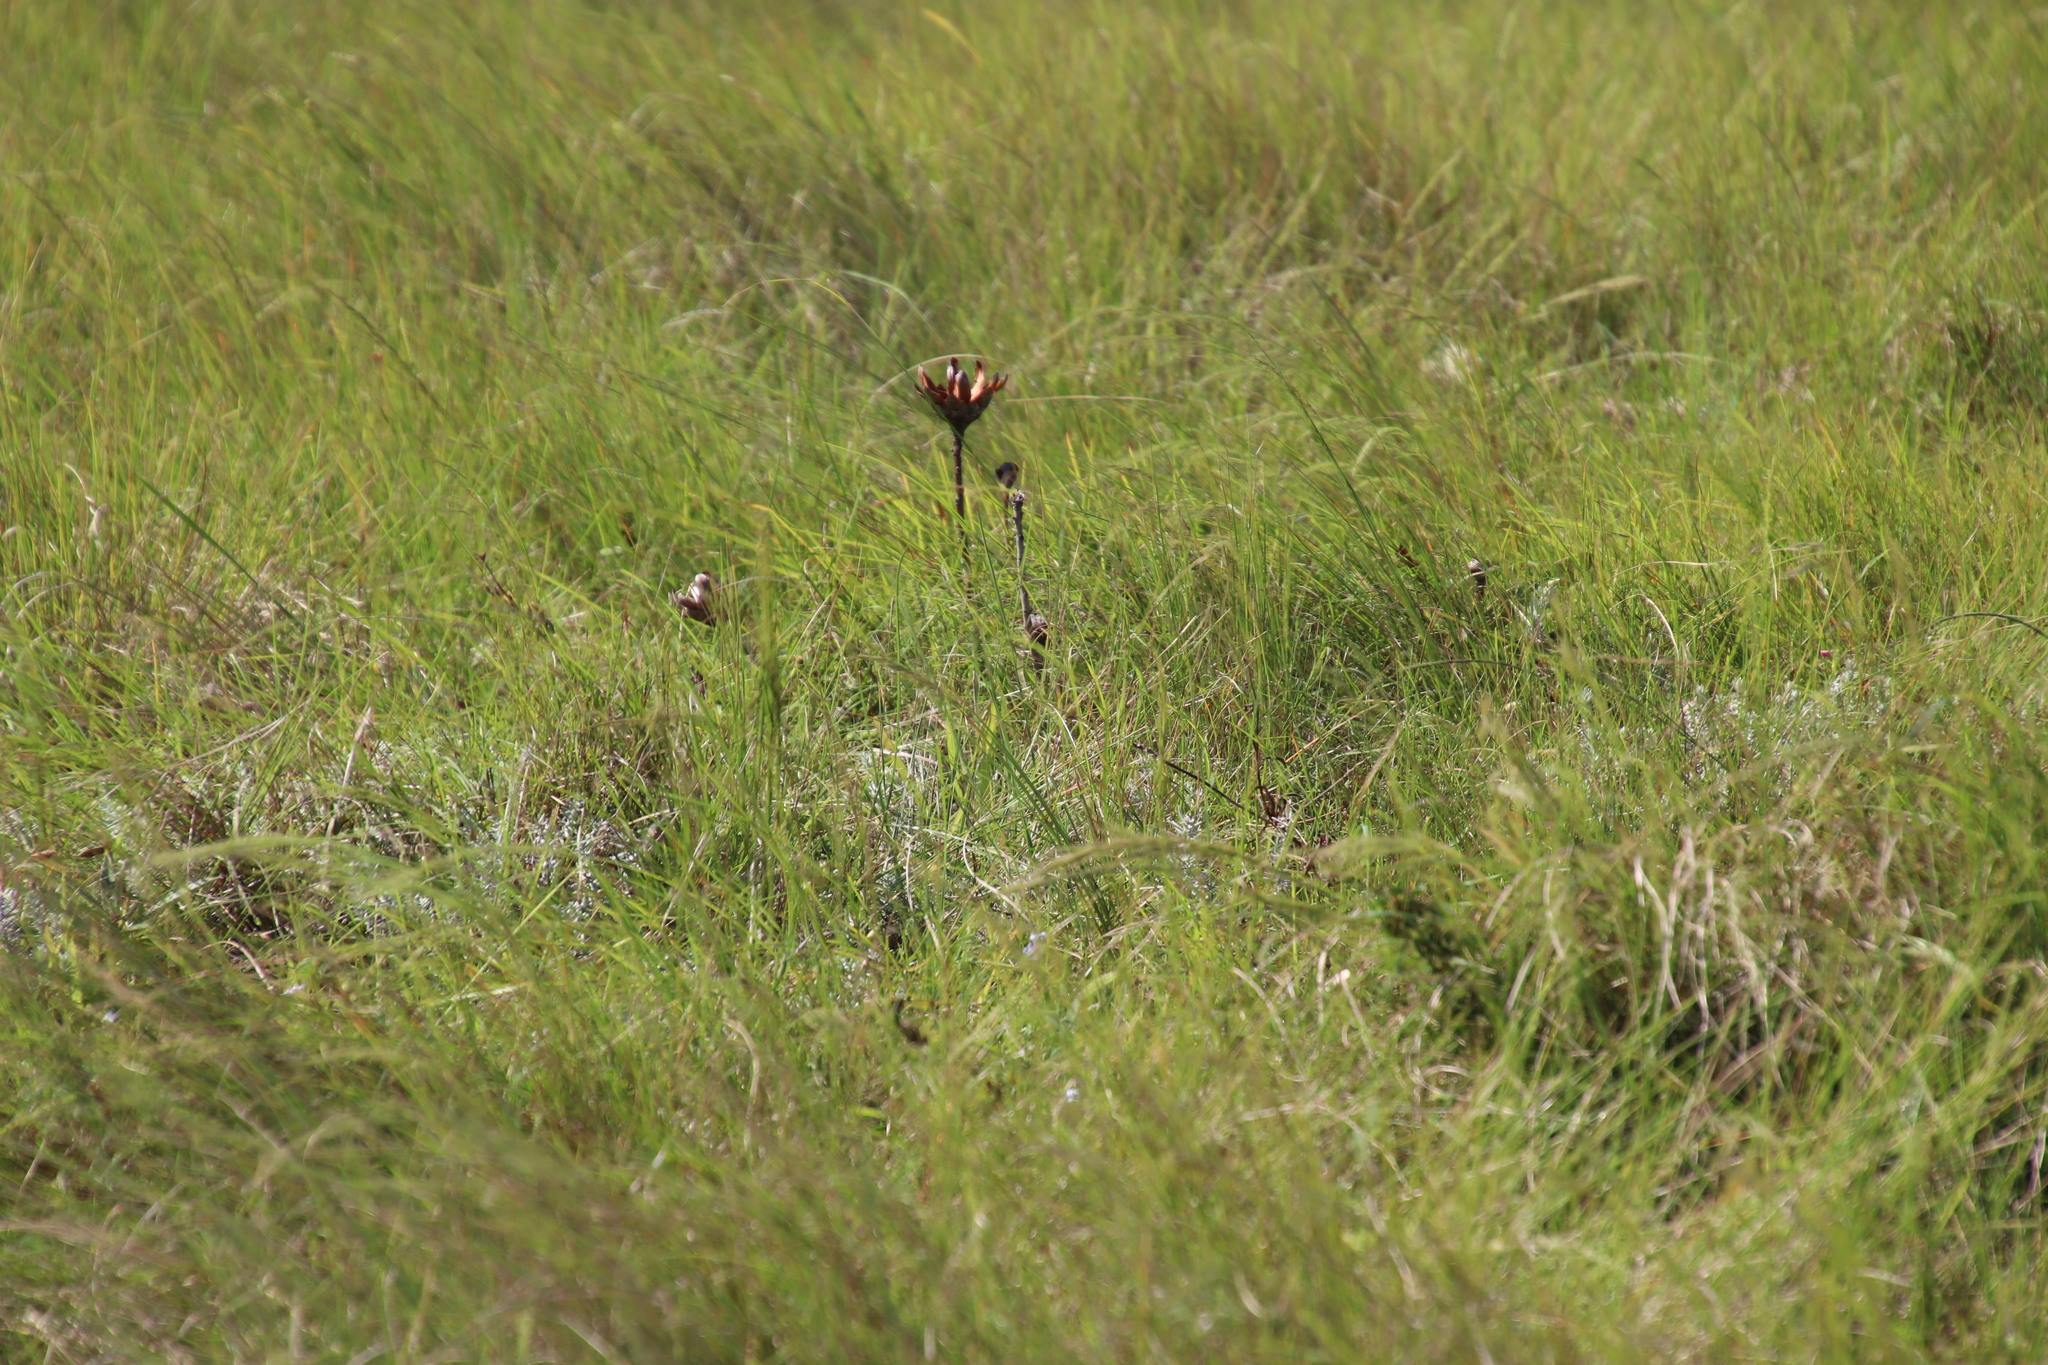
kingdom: Plantae
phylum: Tracheophyta
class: Magnoliopsida
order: Proteales
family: Proteaceae
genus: Protea
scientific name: Protea simplex
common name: Dwarf grassveld sugarbush
